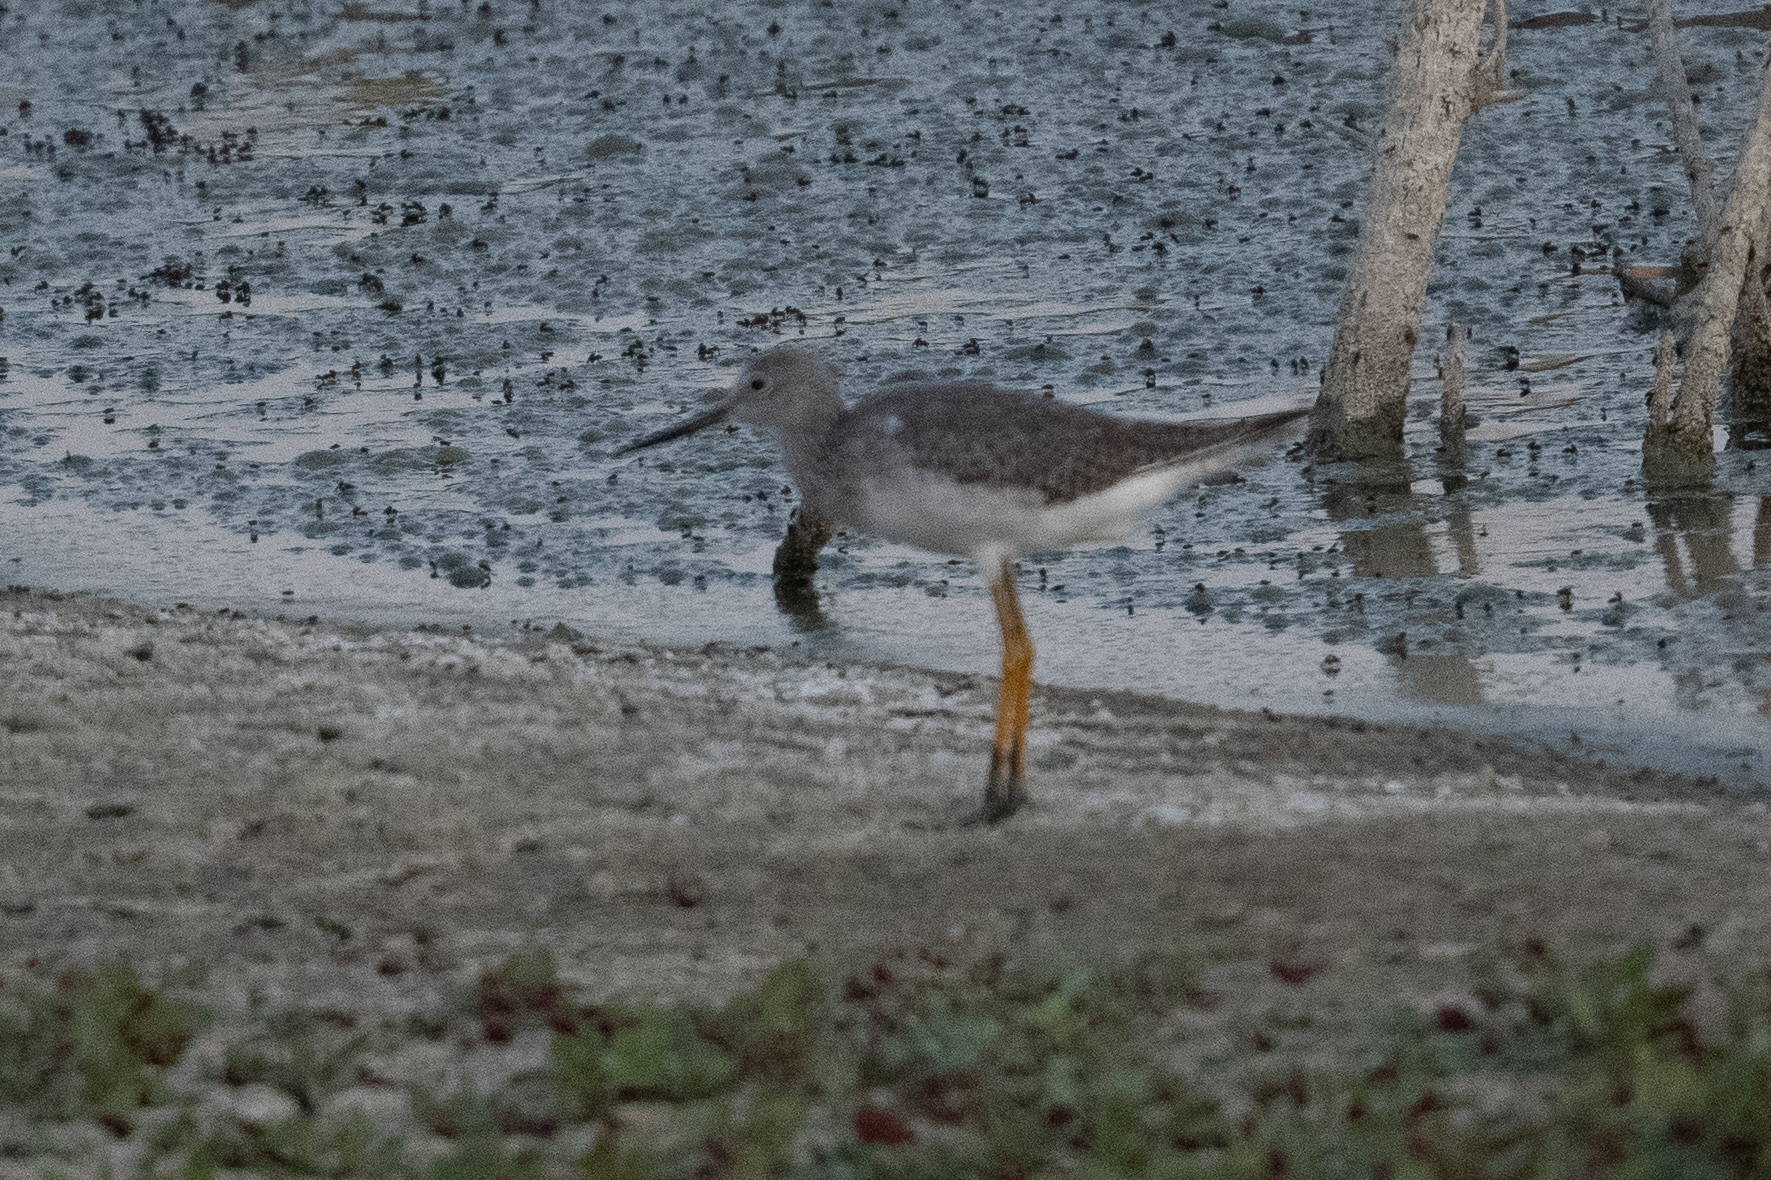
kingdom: Animalia
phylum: Chordata
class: Aves
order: Charadriiformes
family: Scolopacidae
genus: Tringa
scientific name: Tringa melanoleuca
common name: Greater yellowlegs
